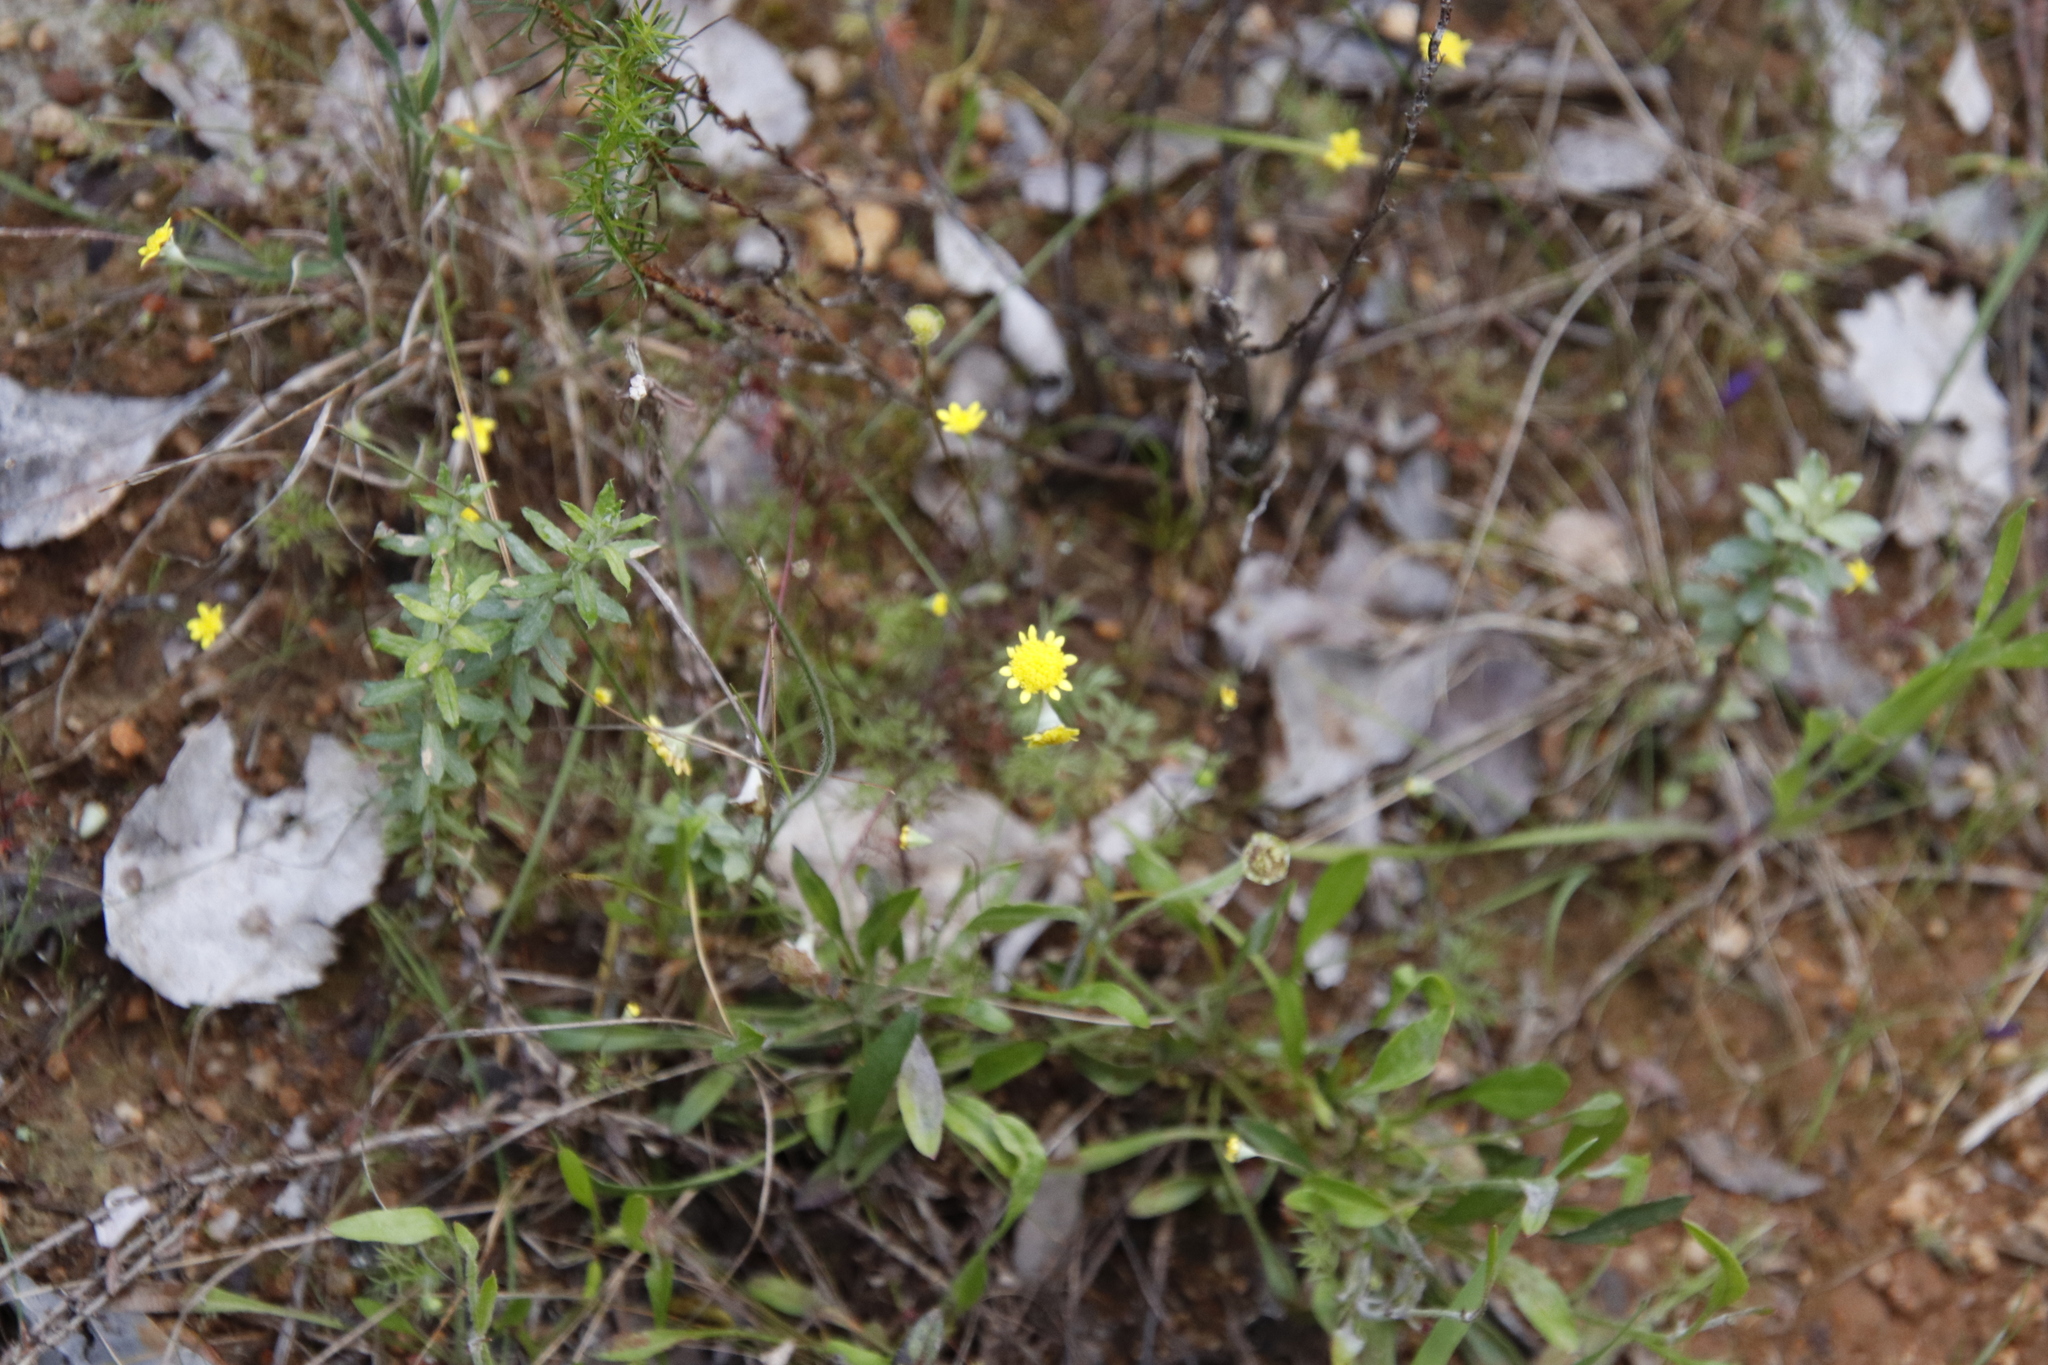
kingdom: Plantae
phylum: Tracheophyta
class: Magnoliopsida
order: Asterales
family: Asteraceae
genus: Cotula
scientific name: Cotula pruinosa
